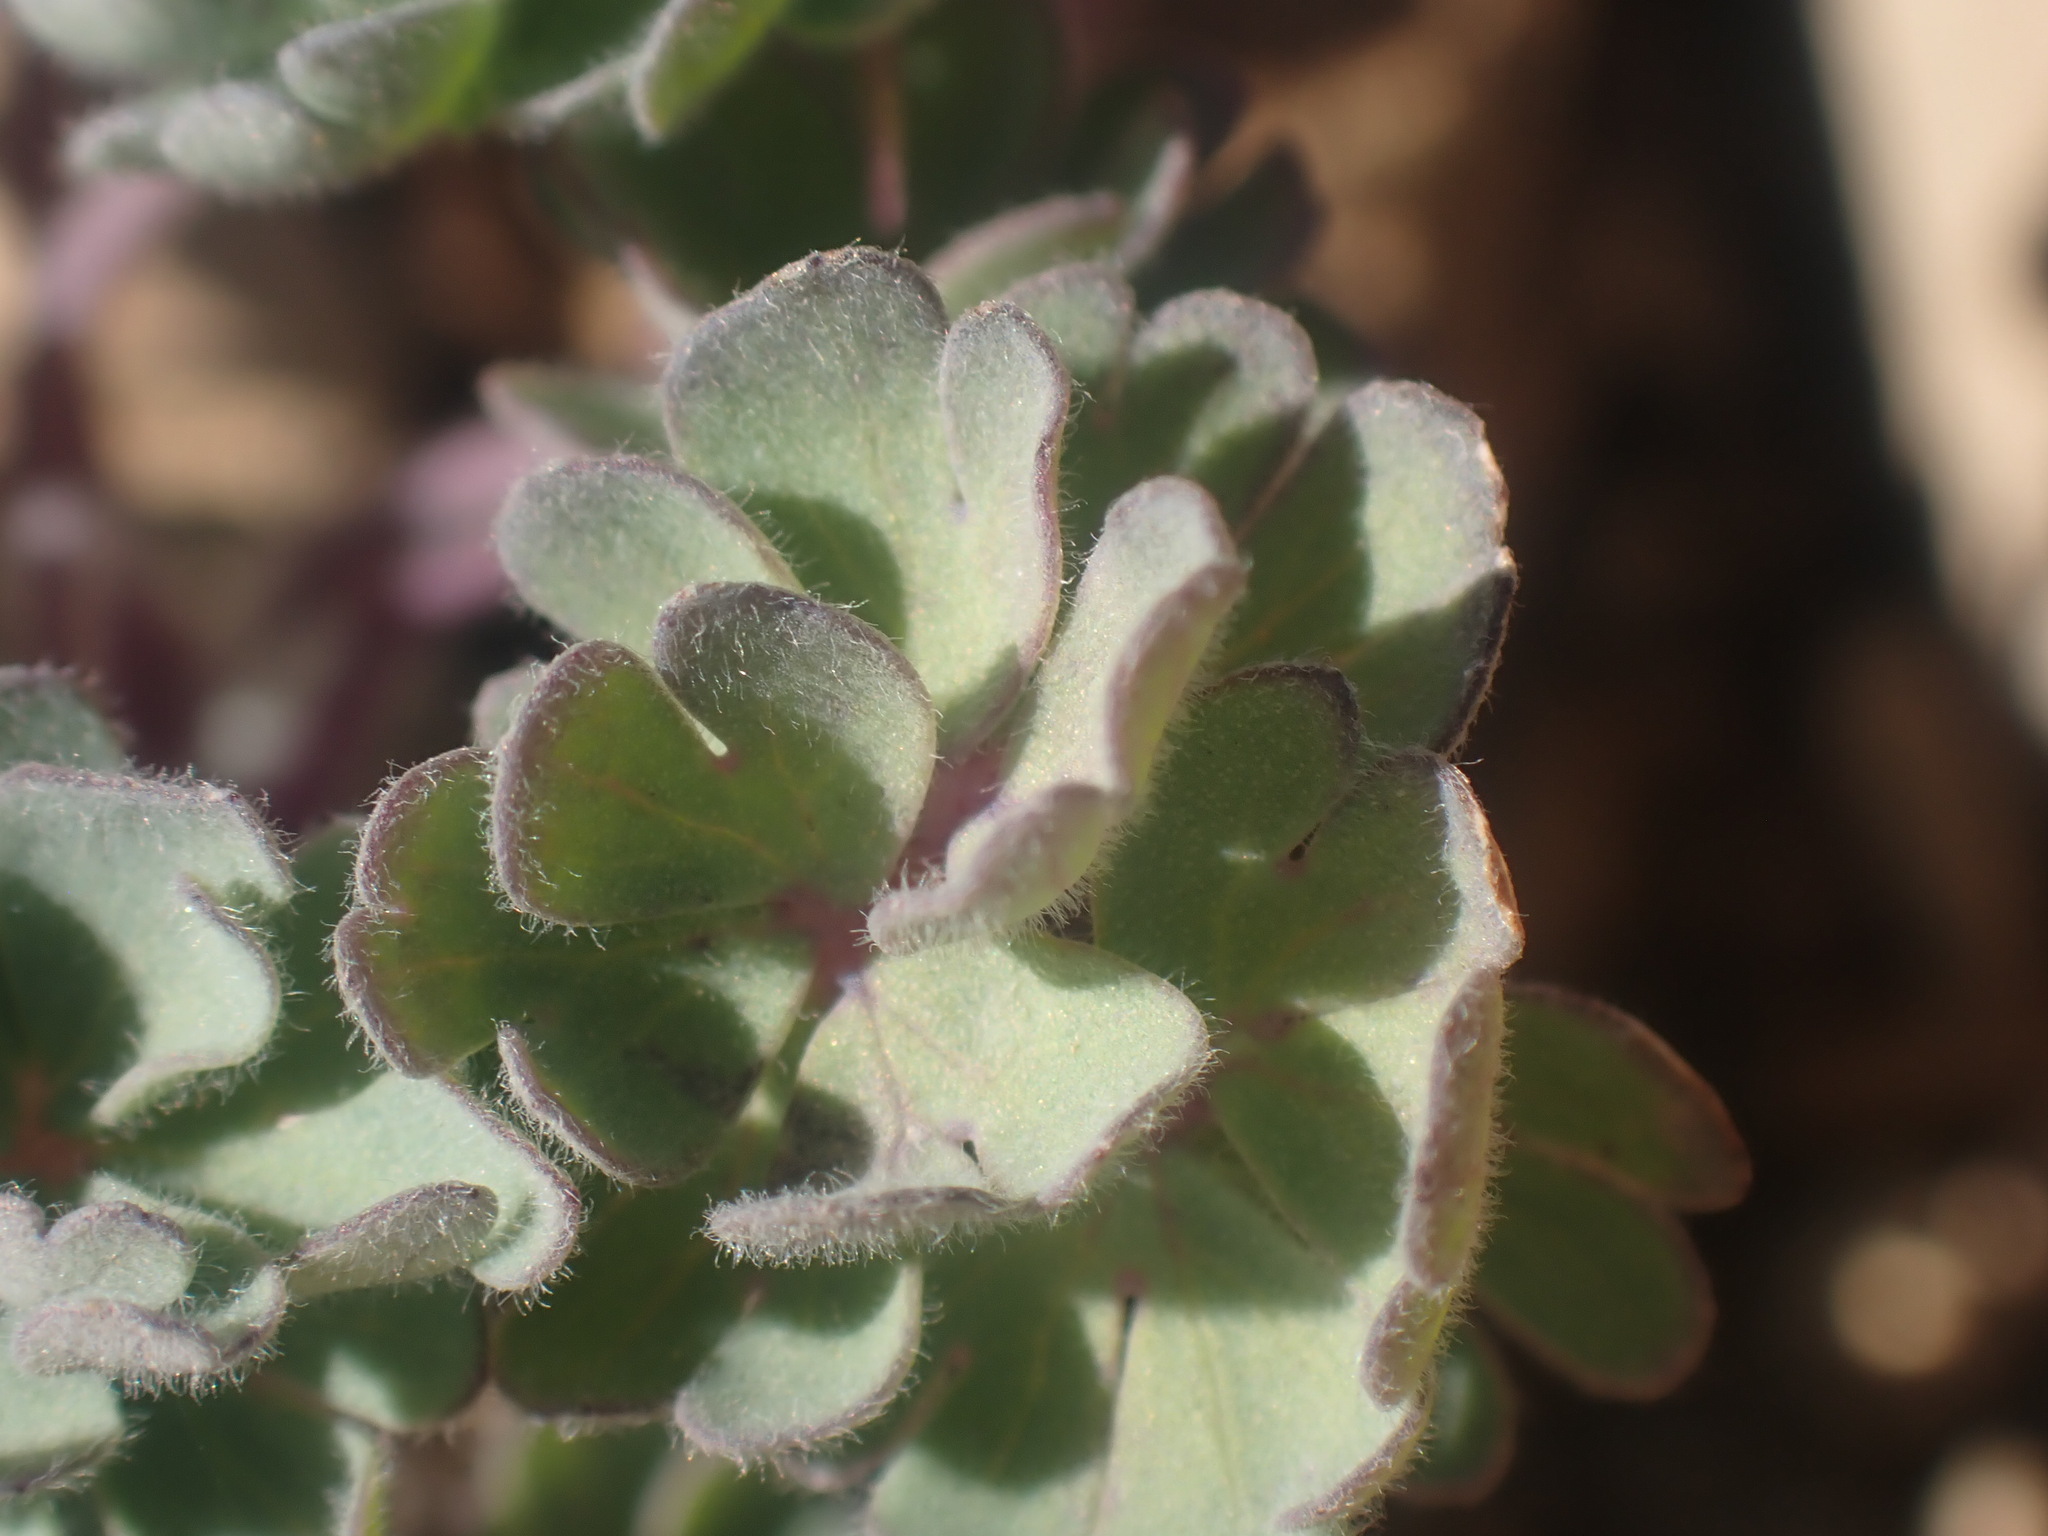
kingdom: Plantae
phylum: Tracheophyta
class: Magnoliopsida
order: Ranunculales
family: Ranunculaceae
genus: Aquilegia
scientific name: Aquilegia jonesii
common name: Jones' columbine
